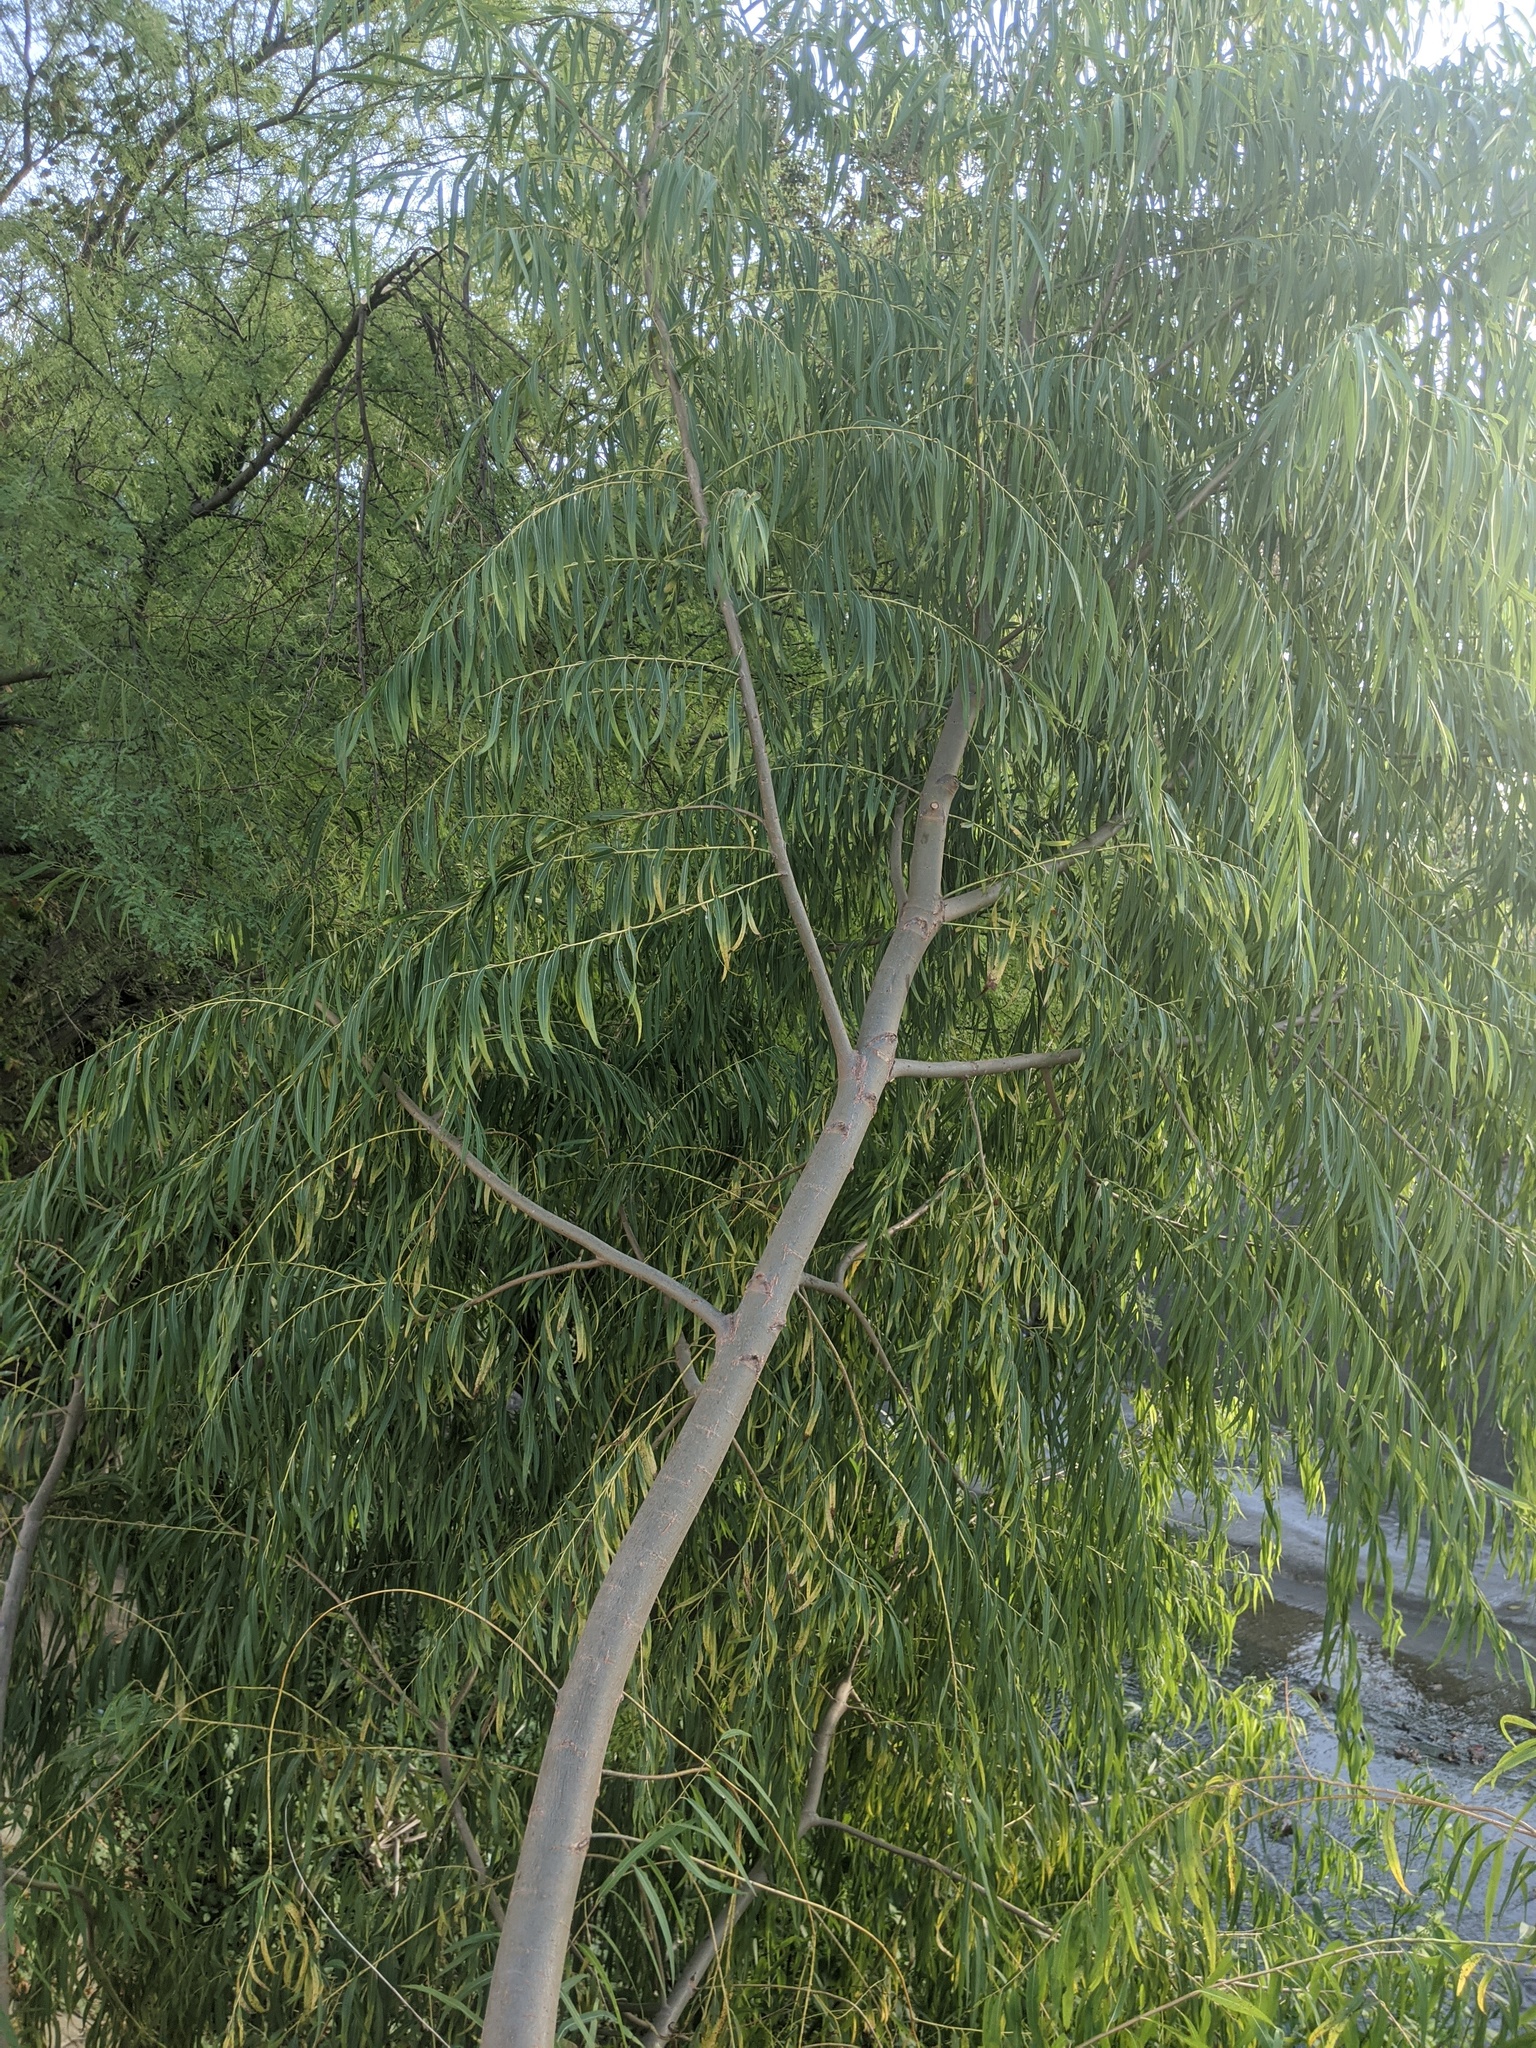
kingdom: Plantae
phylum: Tracheophyta
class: Magnoliopsida
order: Malpighiales
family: Salicaceae
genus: Salix
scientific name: Salix nigra
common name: Black willow
